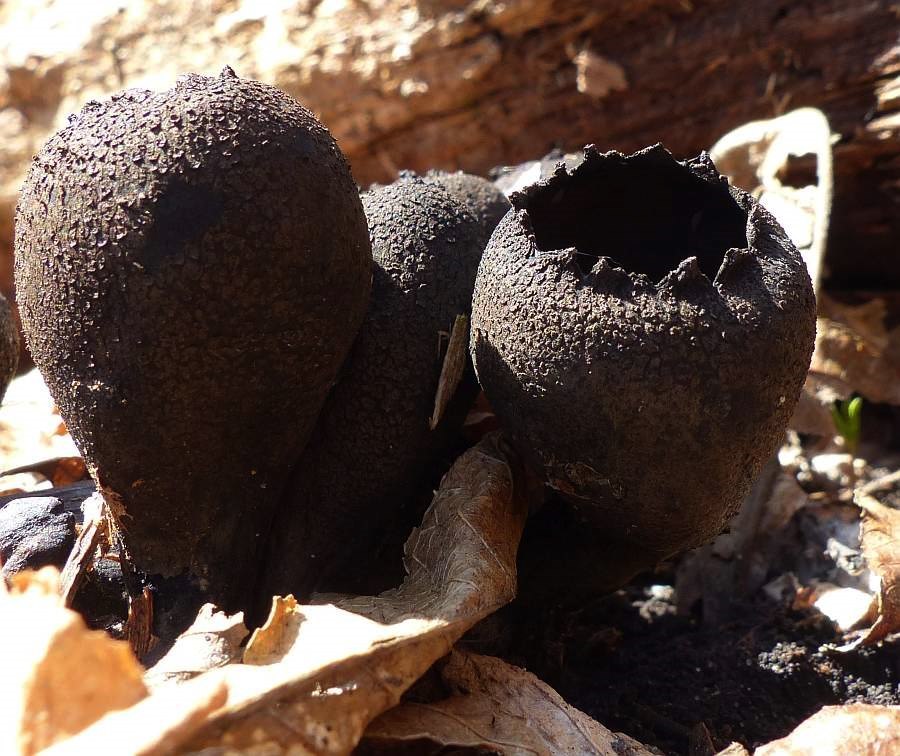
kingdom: Fungi
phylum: Ascomycota
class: Pezizomycetes
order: Pezizales
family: Sarcosomataceae
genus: Urnula
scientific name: Urnula craterium
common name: Devil's urn
